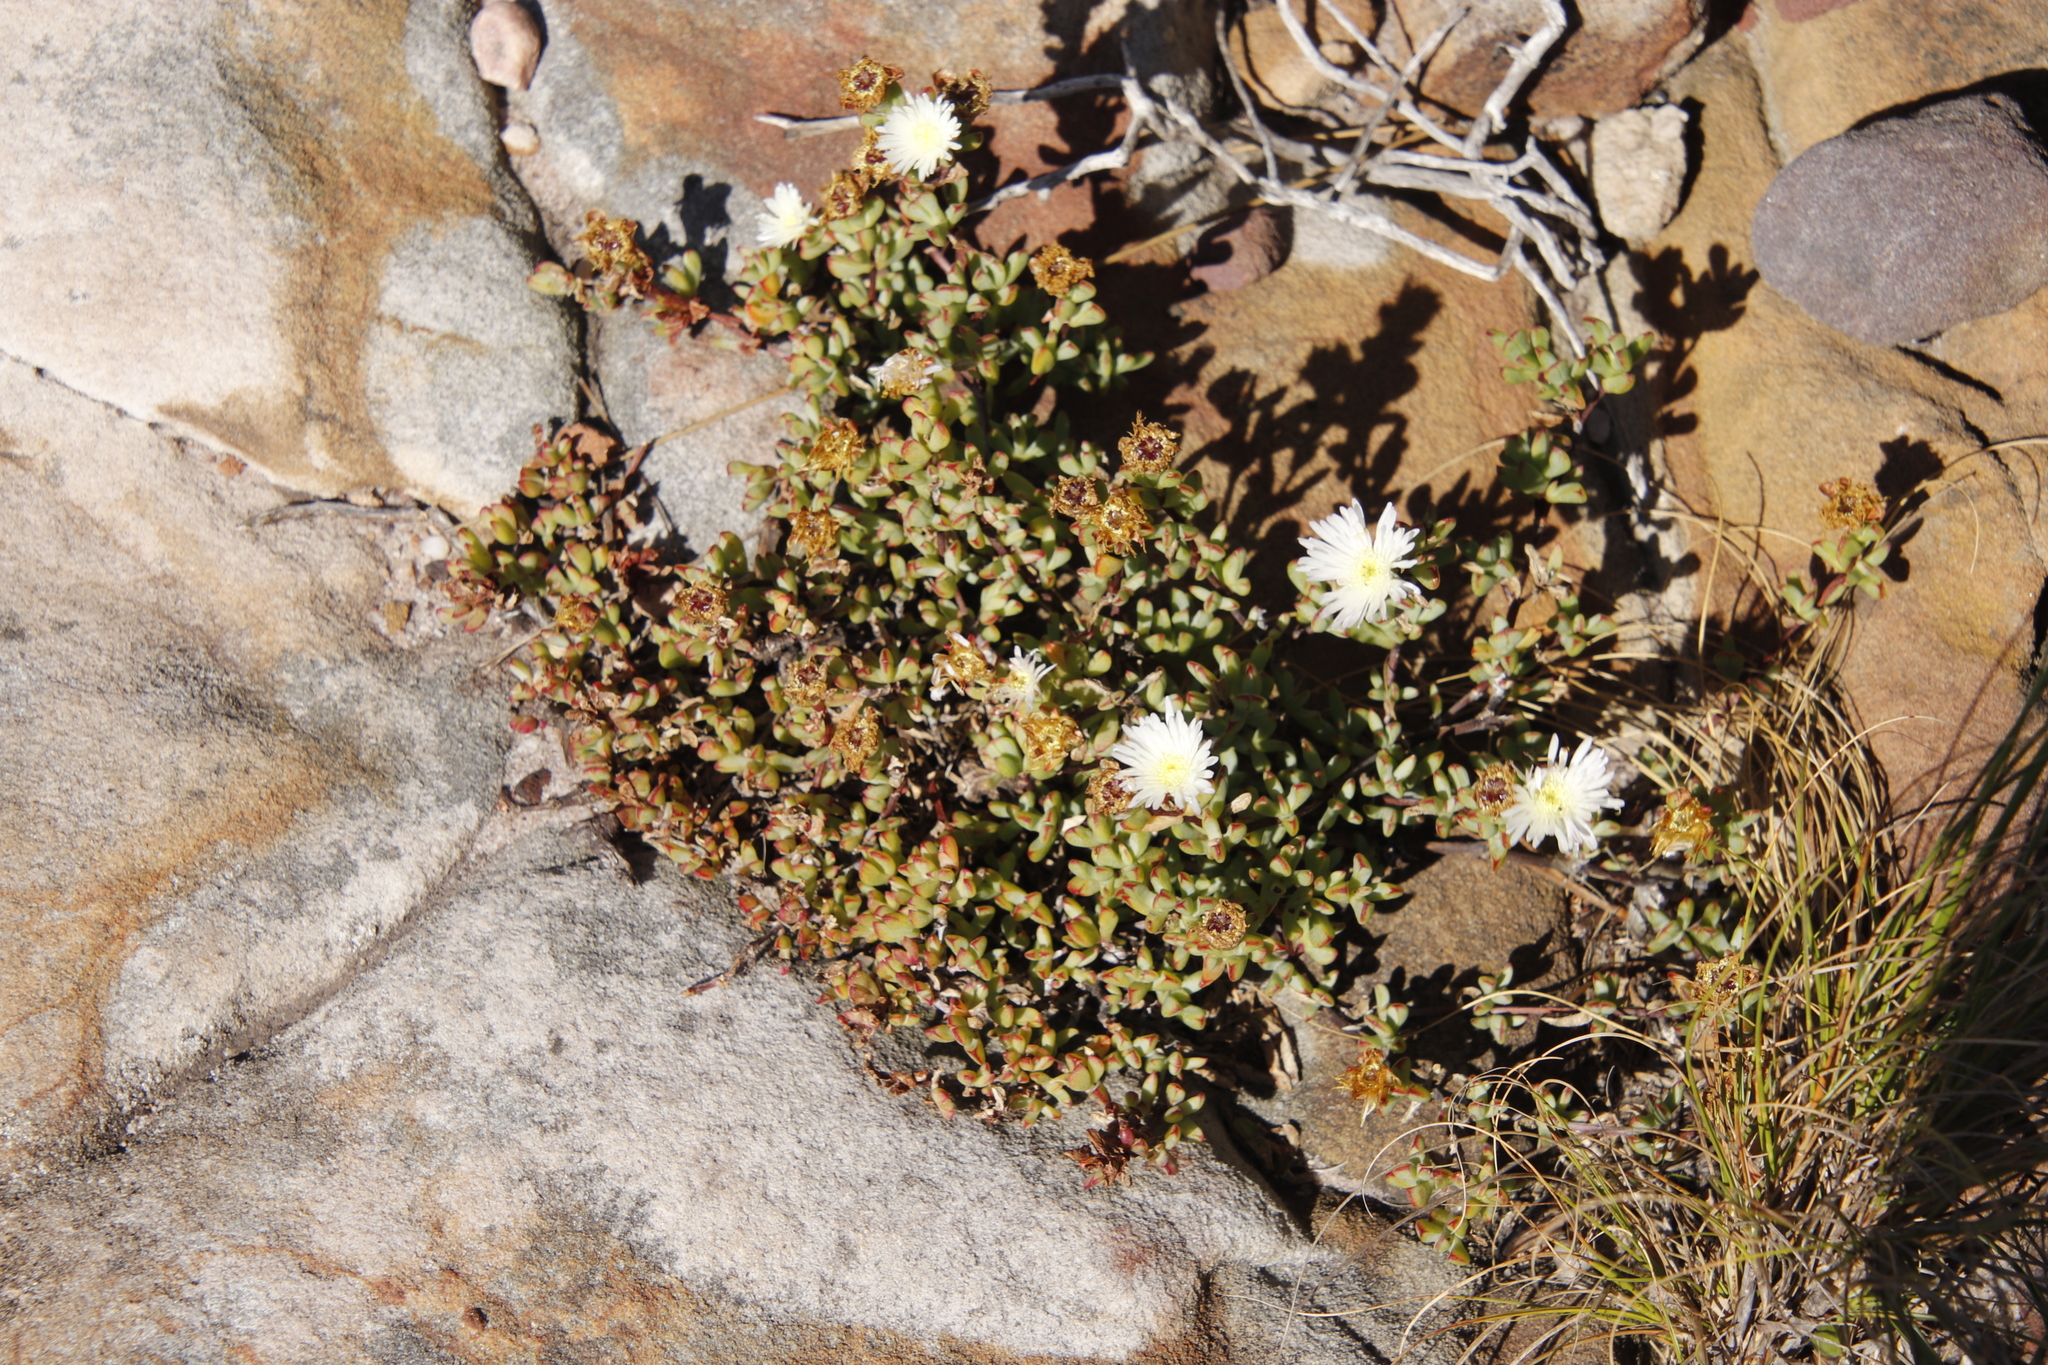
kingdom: Plantae
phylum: Tracheophyta
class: Magnoliopsida
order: Caryophyllales
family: Aizoaceae
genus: Oscularia
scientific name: Oscularia falciformis
